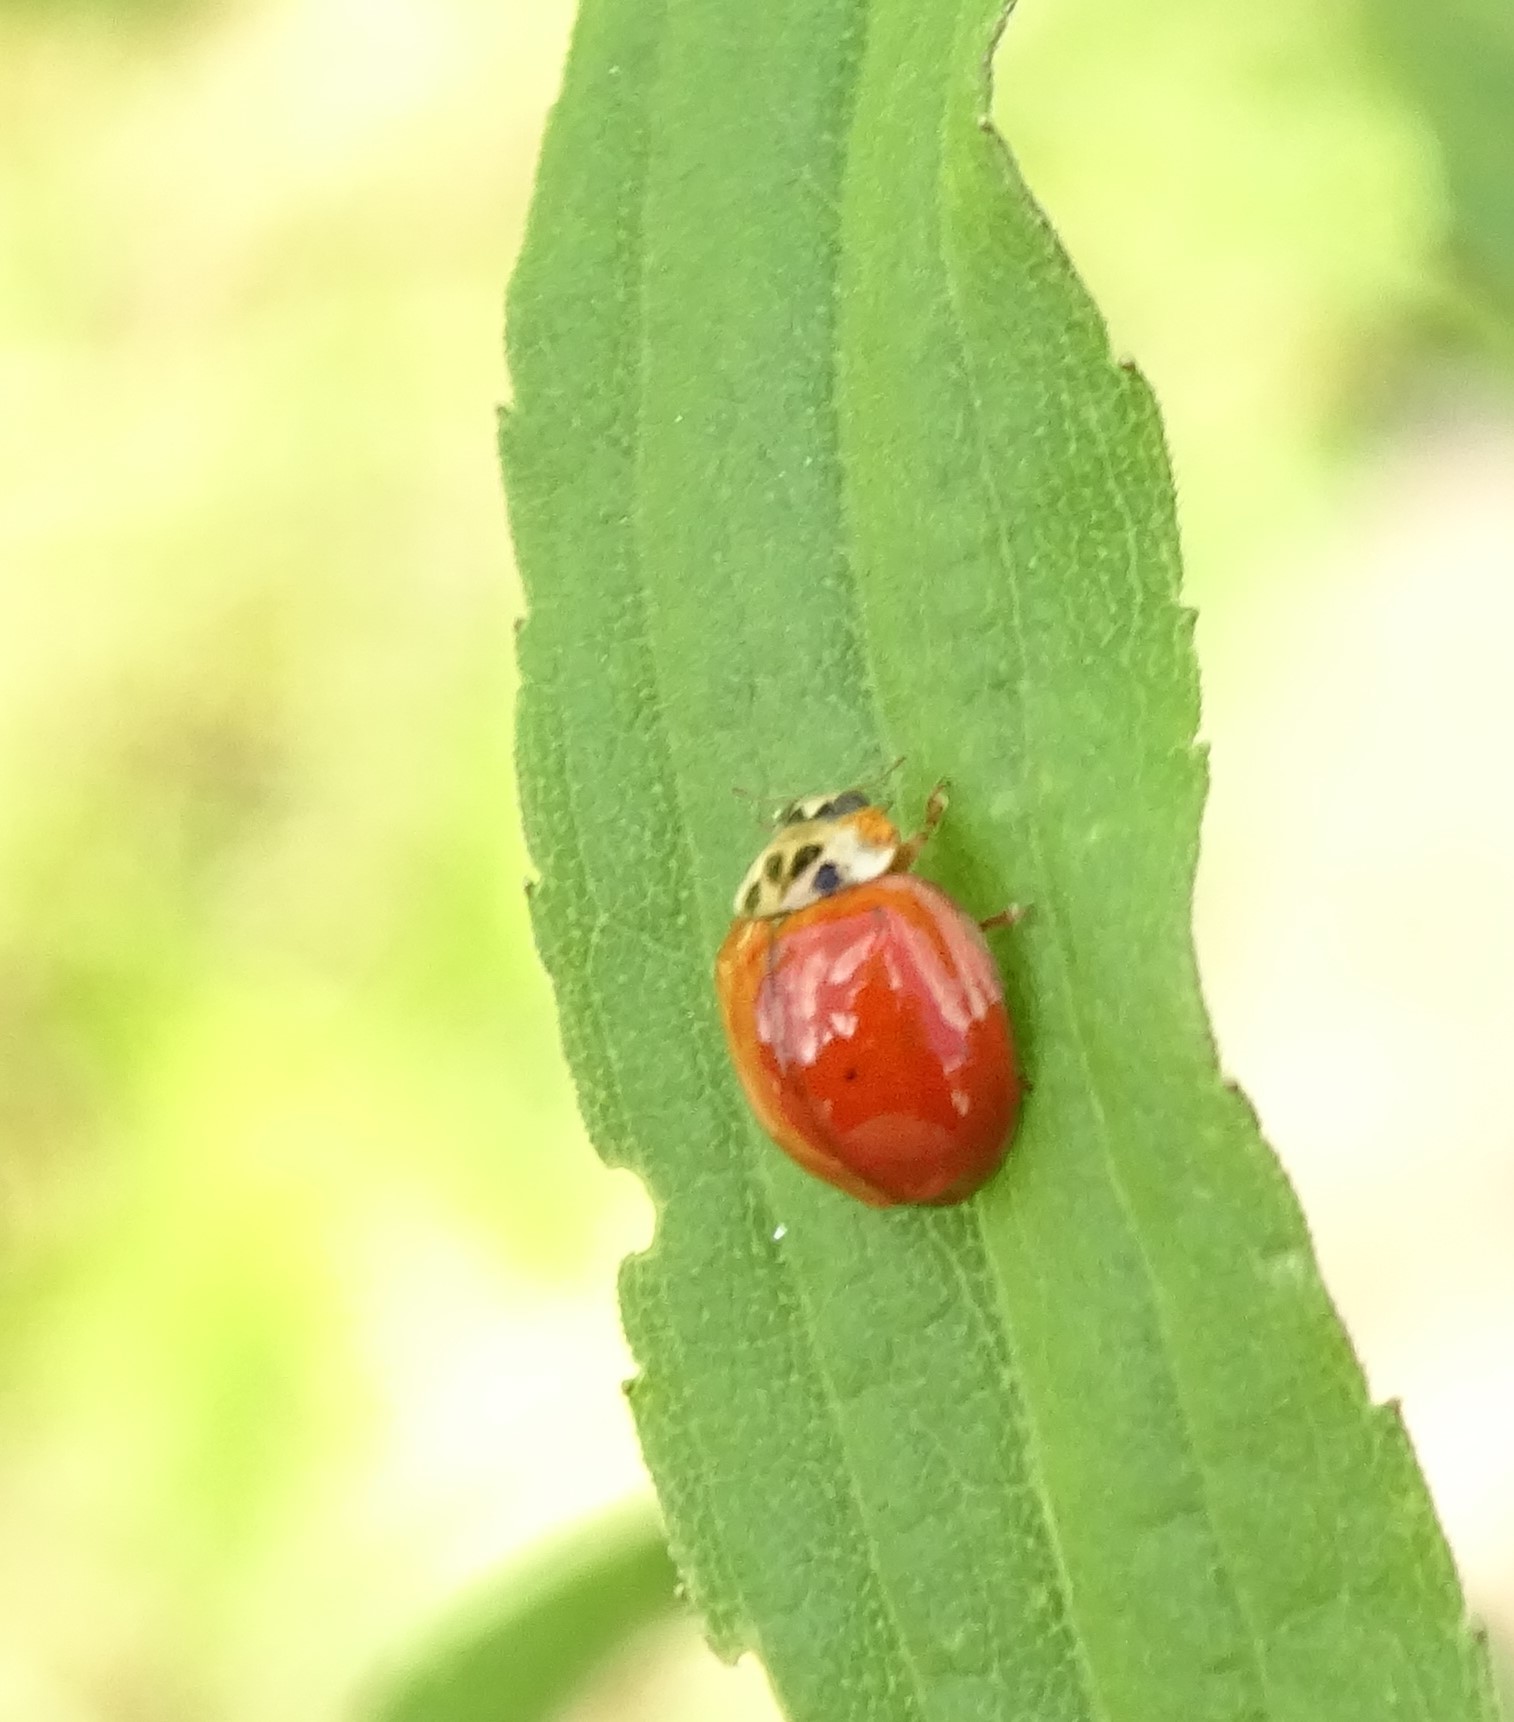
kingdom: Animalia
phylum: Arthropoda
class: Insecta
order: Coleoptera
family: Coccinellidae
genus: Harmonia
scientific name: Harmonia axyridis
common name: Harlequin ladybird
